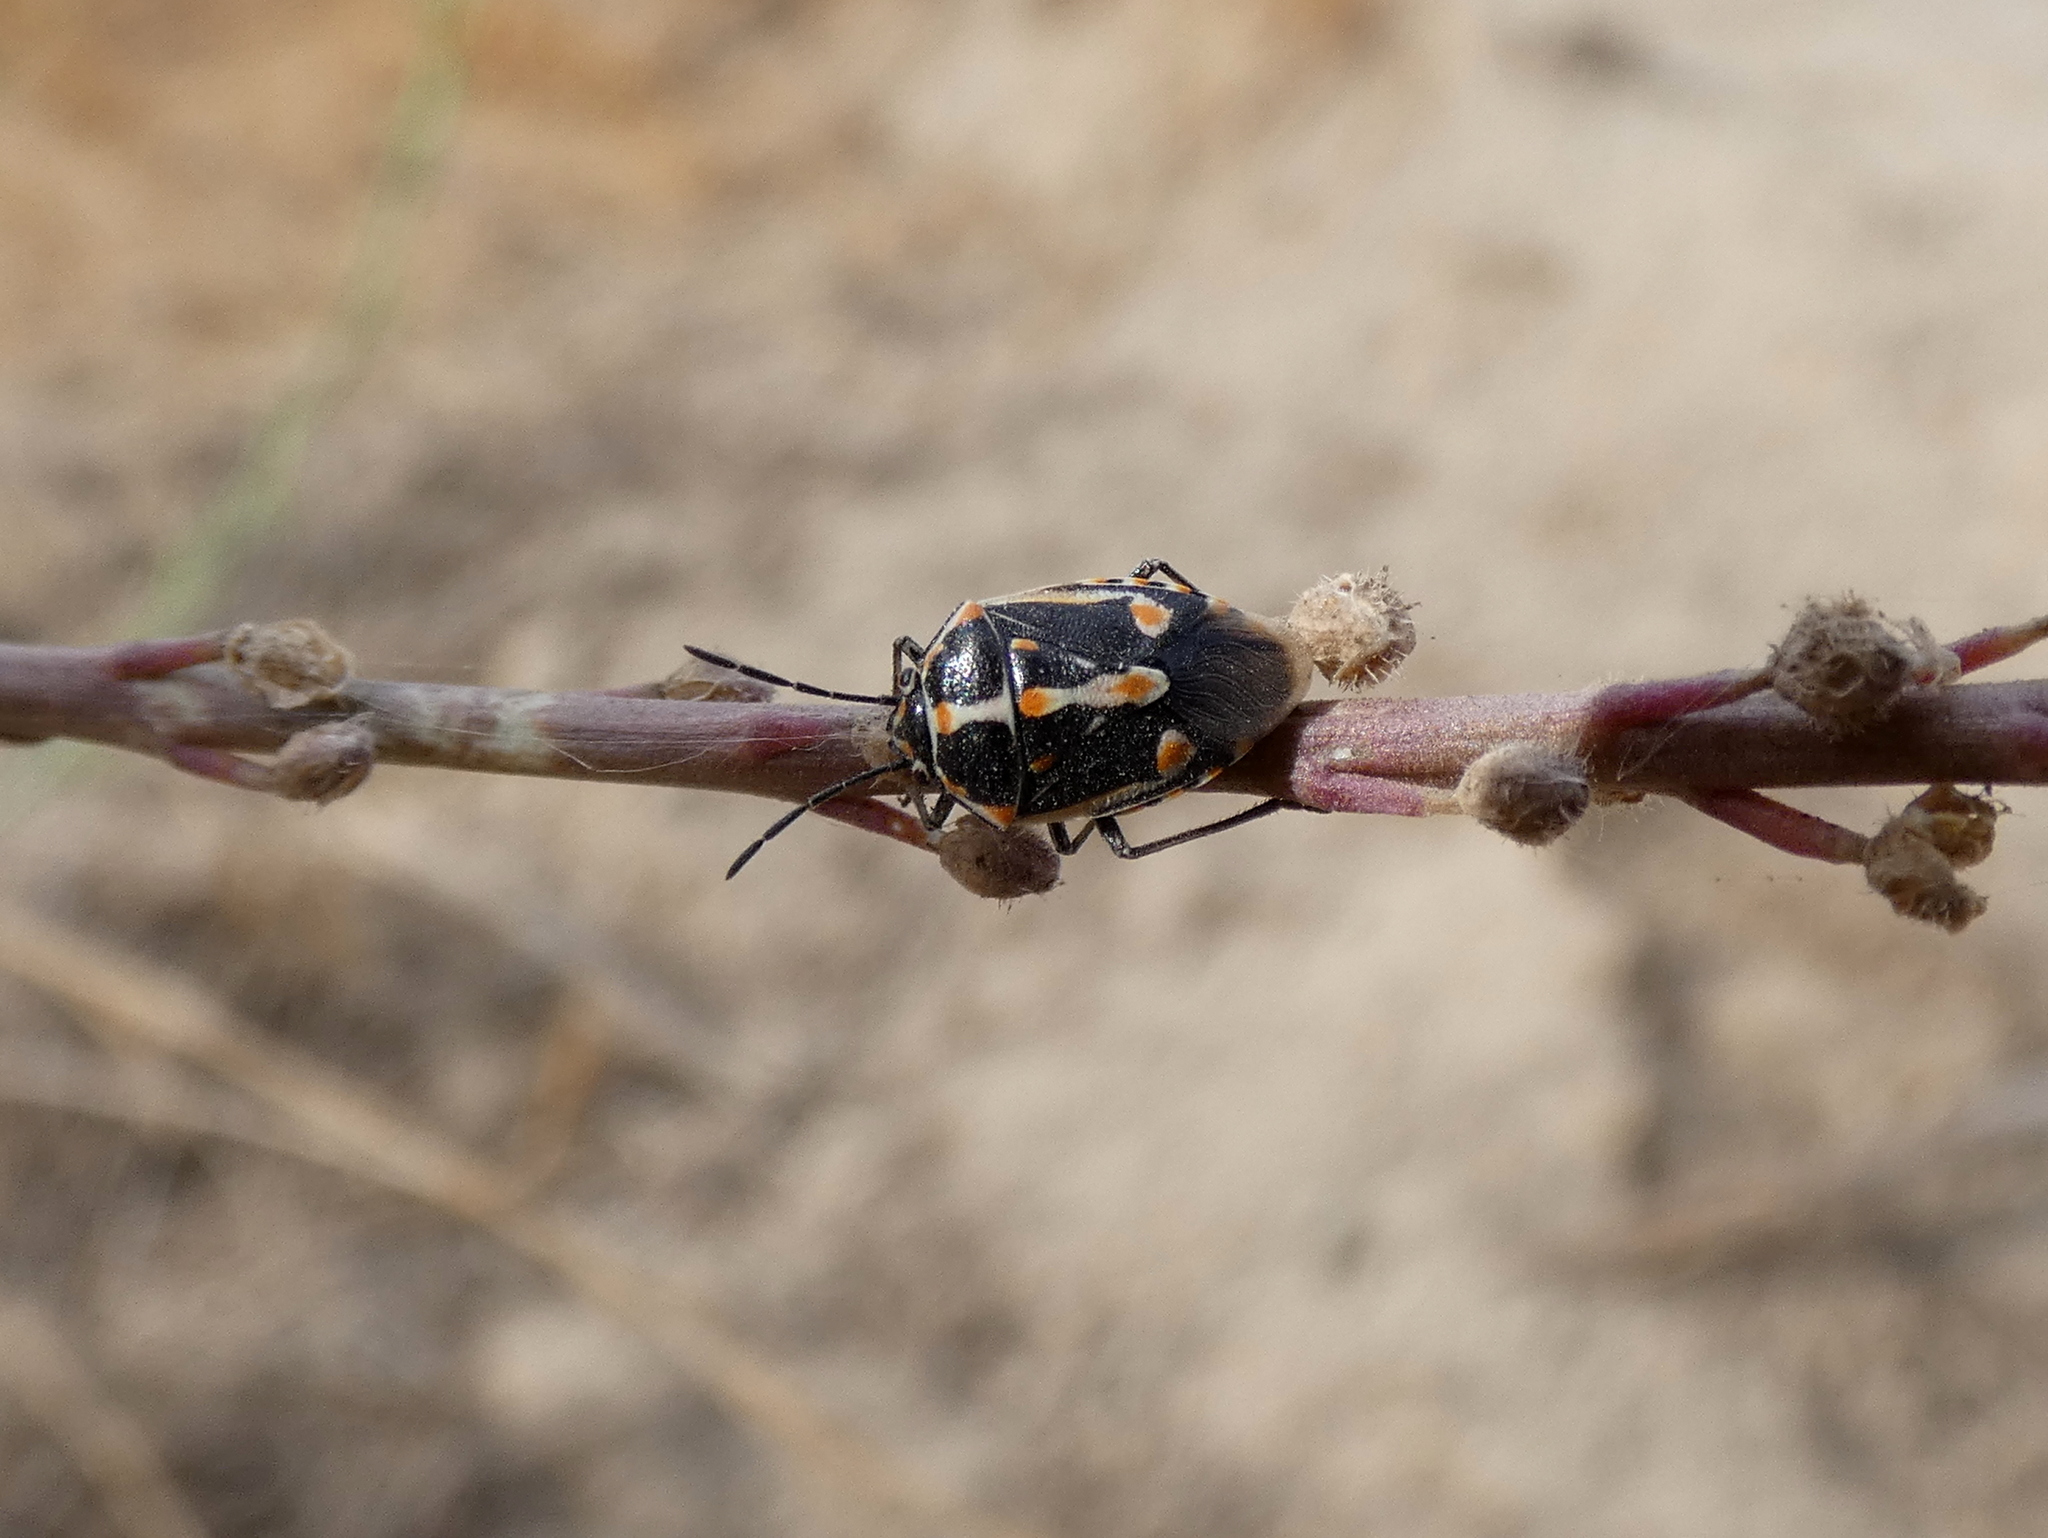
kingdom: Animalia
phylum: Arthropoda
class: Insecta
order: Hemiptera
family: Pentatomidae
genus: Bagrada
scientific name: Bagrada hilaris
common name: Bagrada bug
